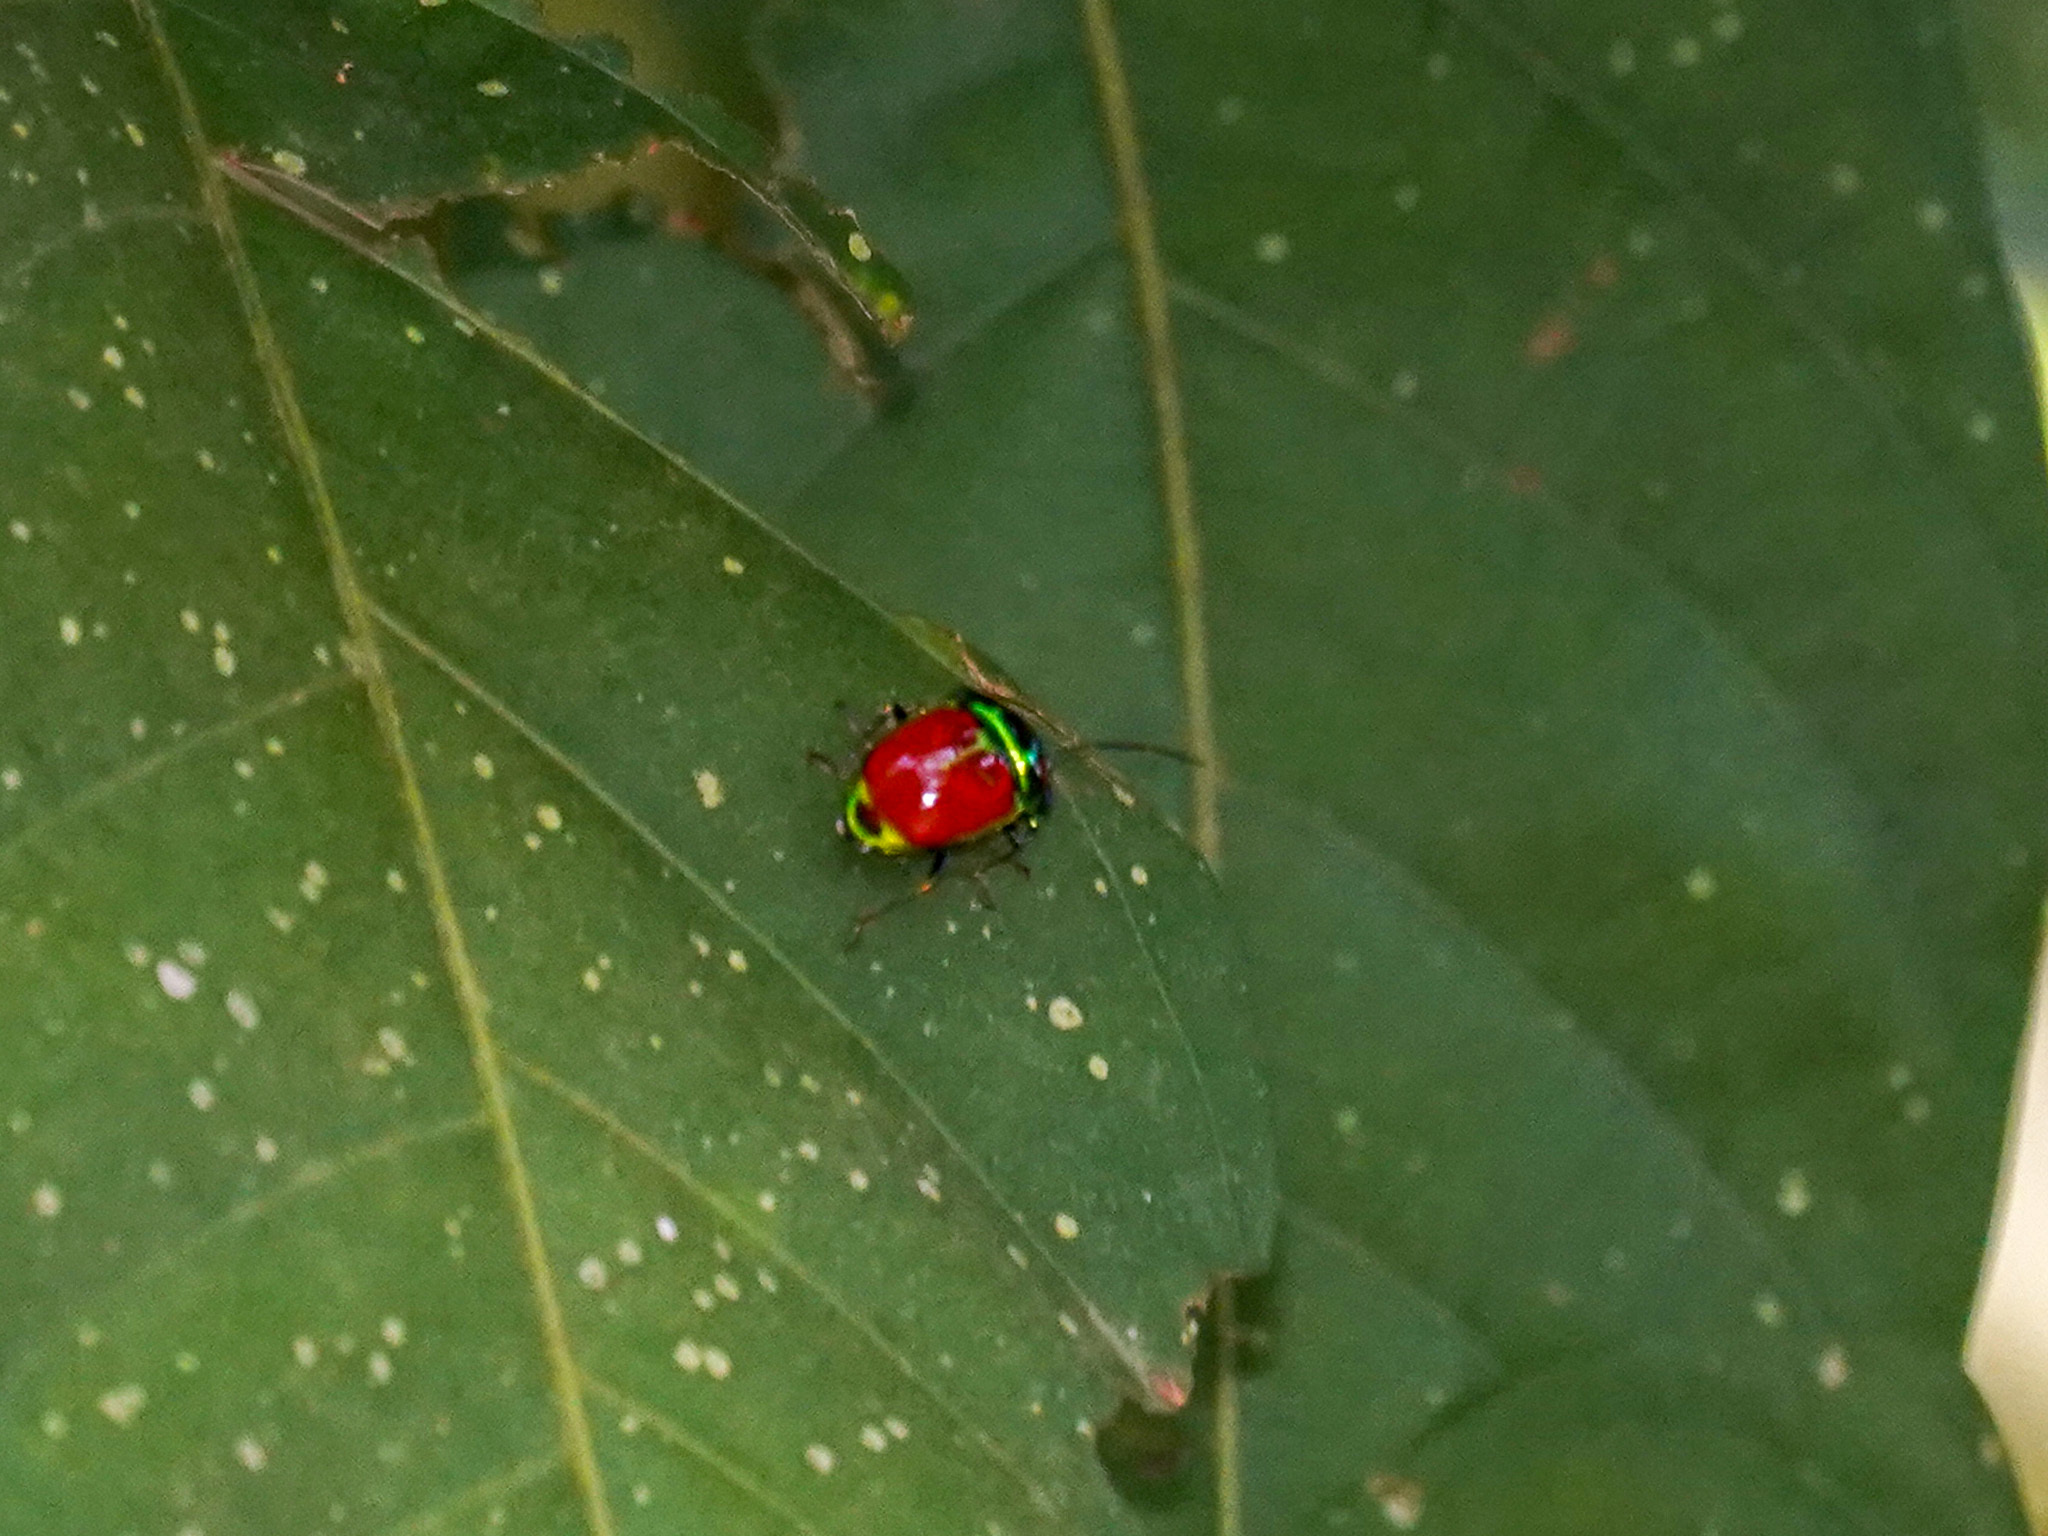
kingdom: Animalia
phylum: Arthropoda
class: Insecta
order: Hemiptera
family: Scutelleridae
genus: Chrysocoris
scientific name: Chrysocoris
